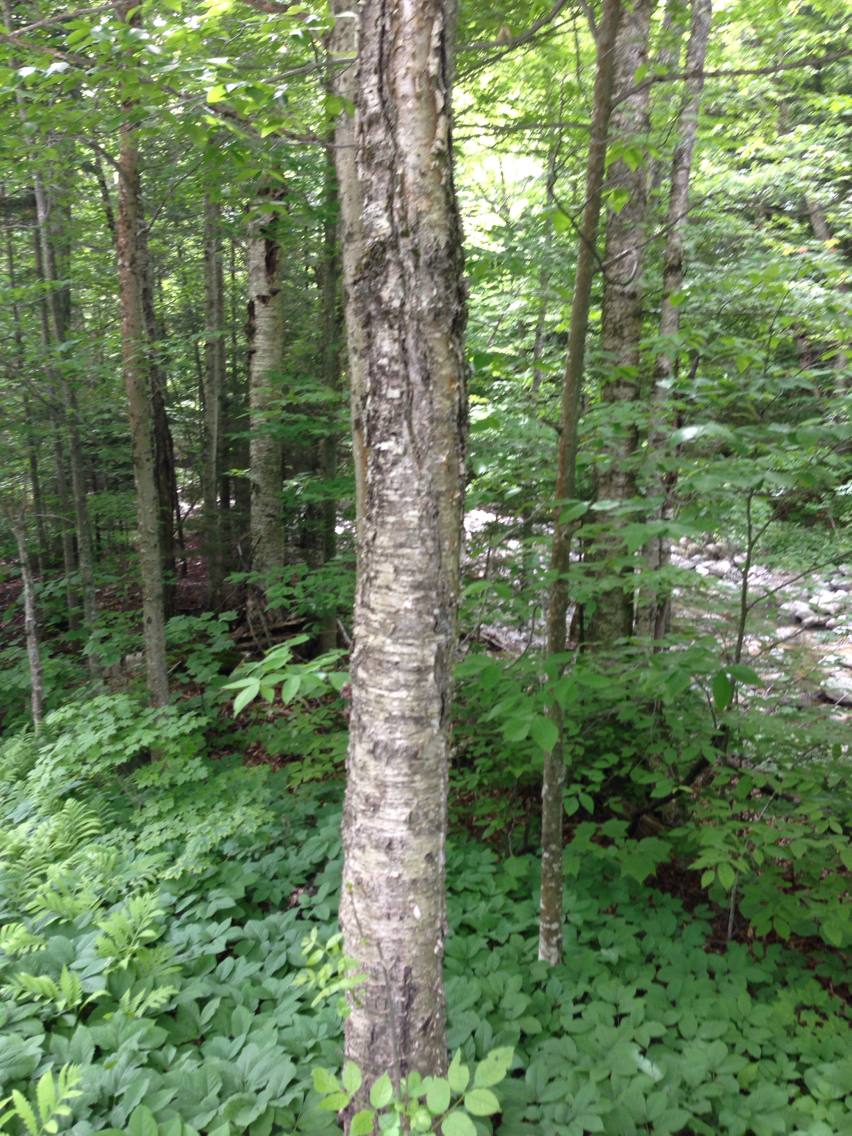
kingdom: Plantae
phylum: Tracheophyta
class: Magnoliopsida
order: Fagales
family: Betulaceae
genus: Betula
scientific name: Betula alleghaniensis
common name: Yellow birch
